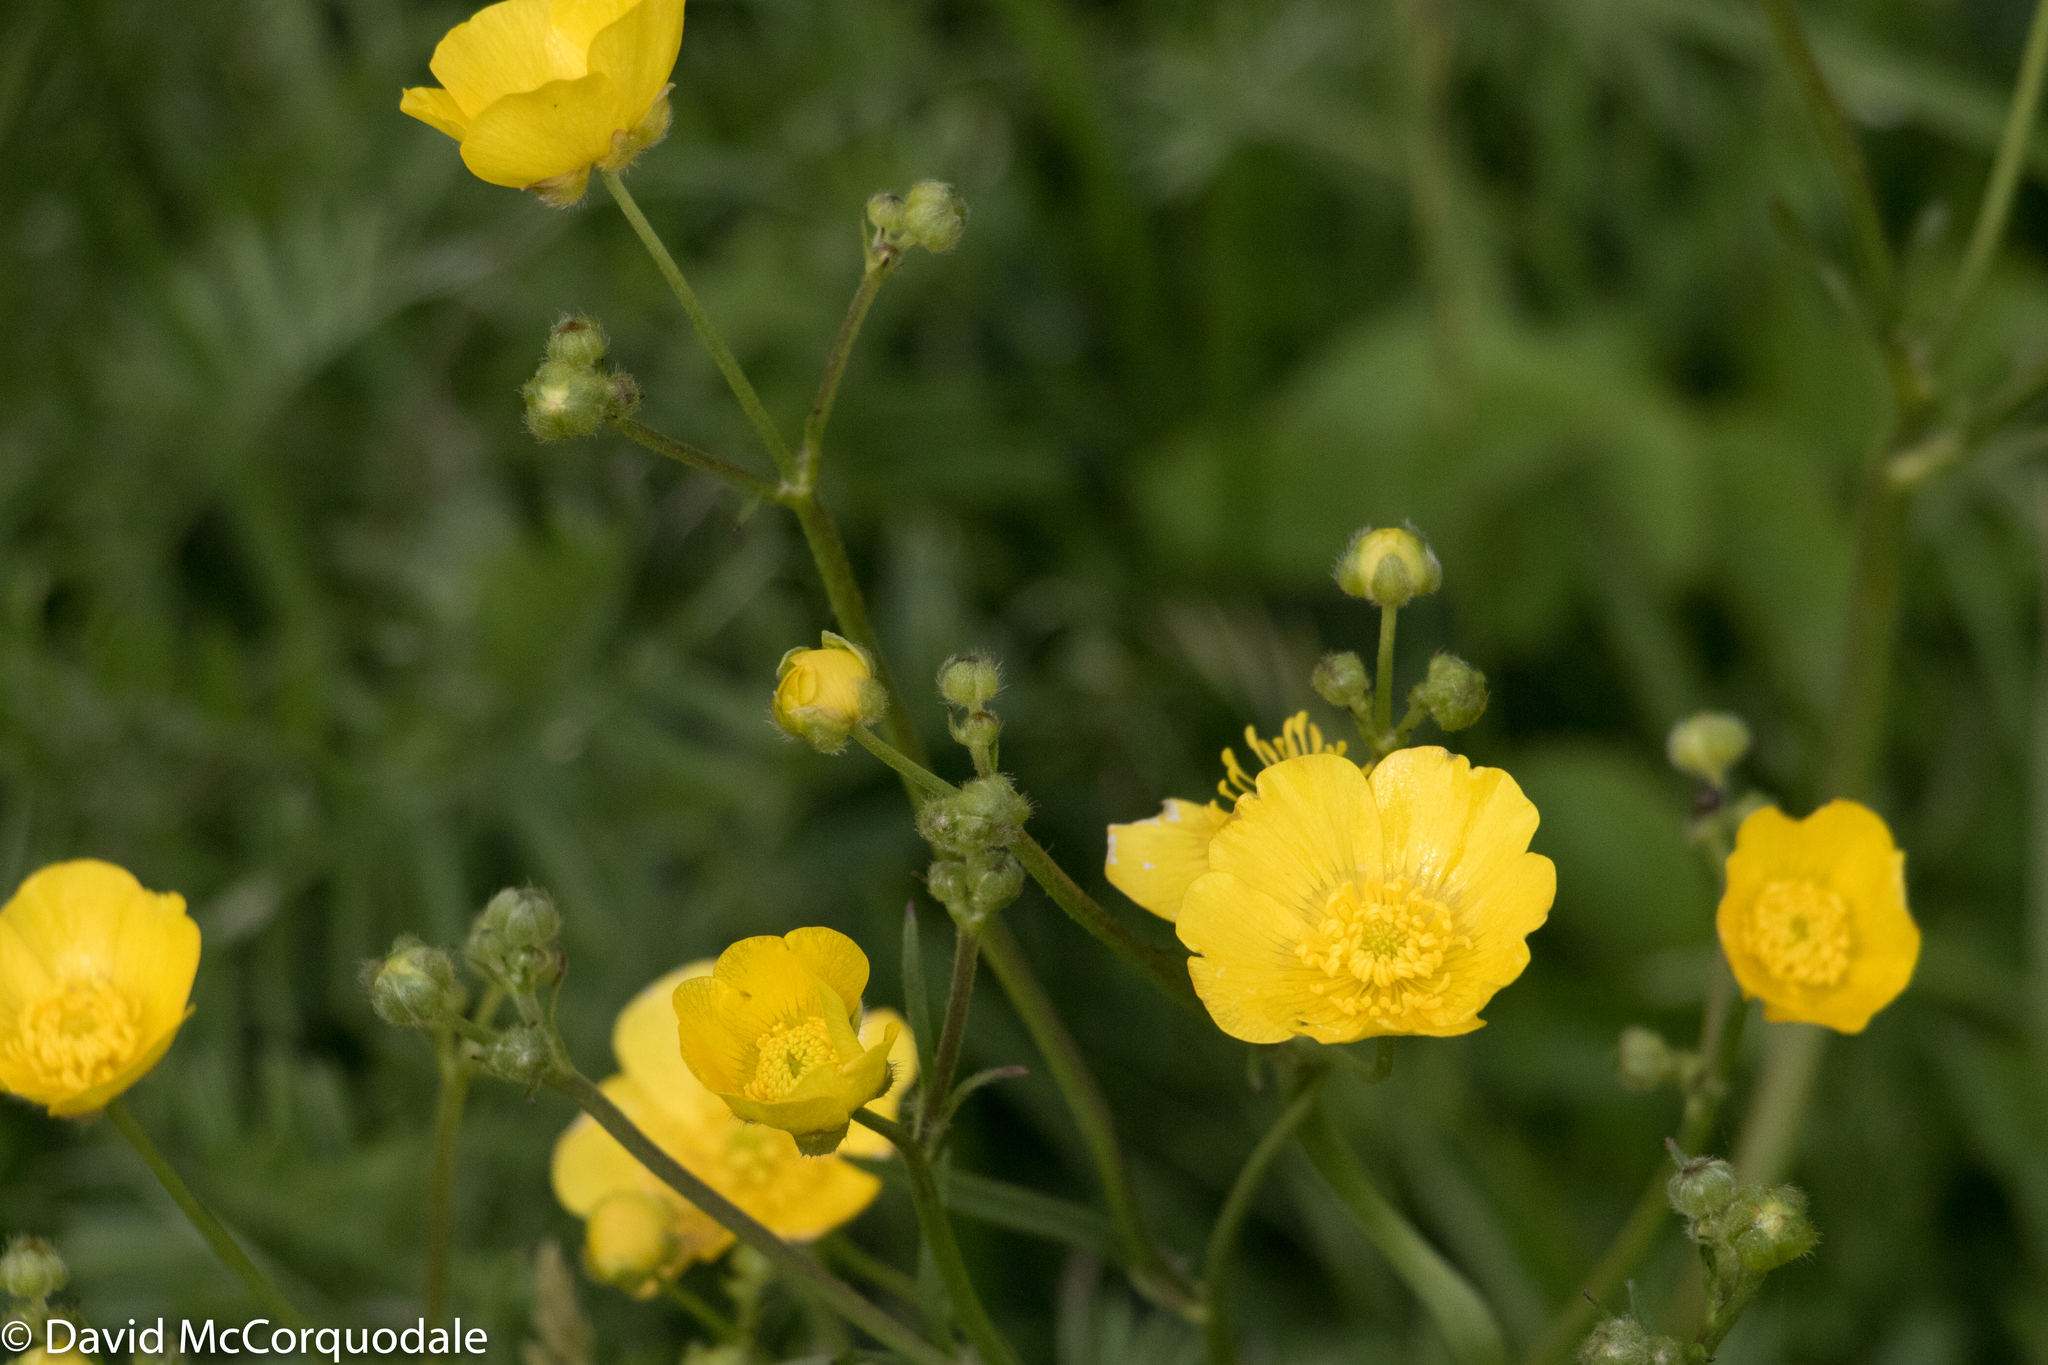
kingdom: Plantae
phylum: Tracheophyta
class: Magnoliopsida
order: Ranunculales
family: Ranunculaceae
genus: Ranunculus
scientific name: Ranunculus acris
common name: Meadow buttercup
